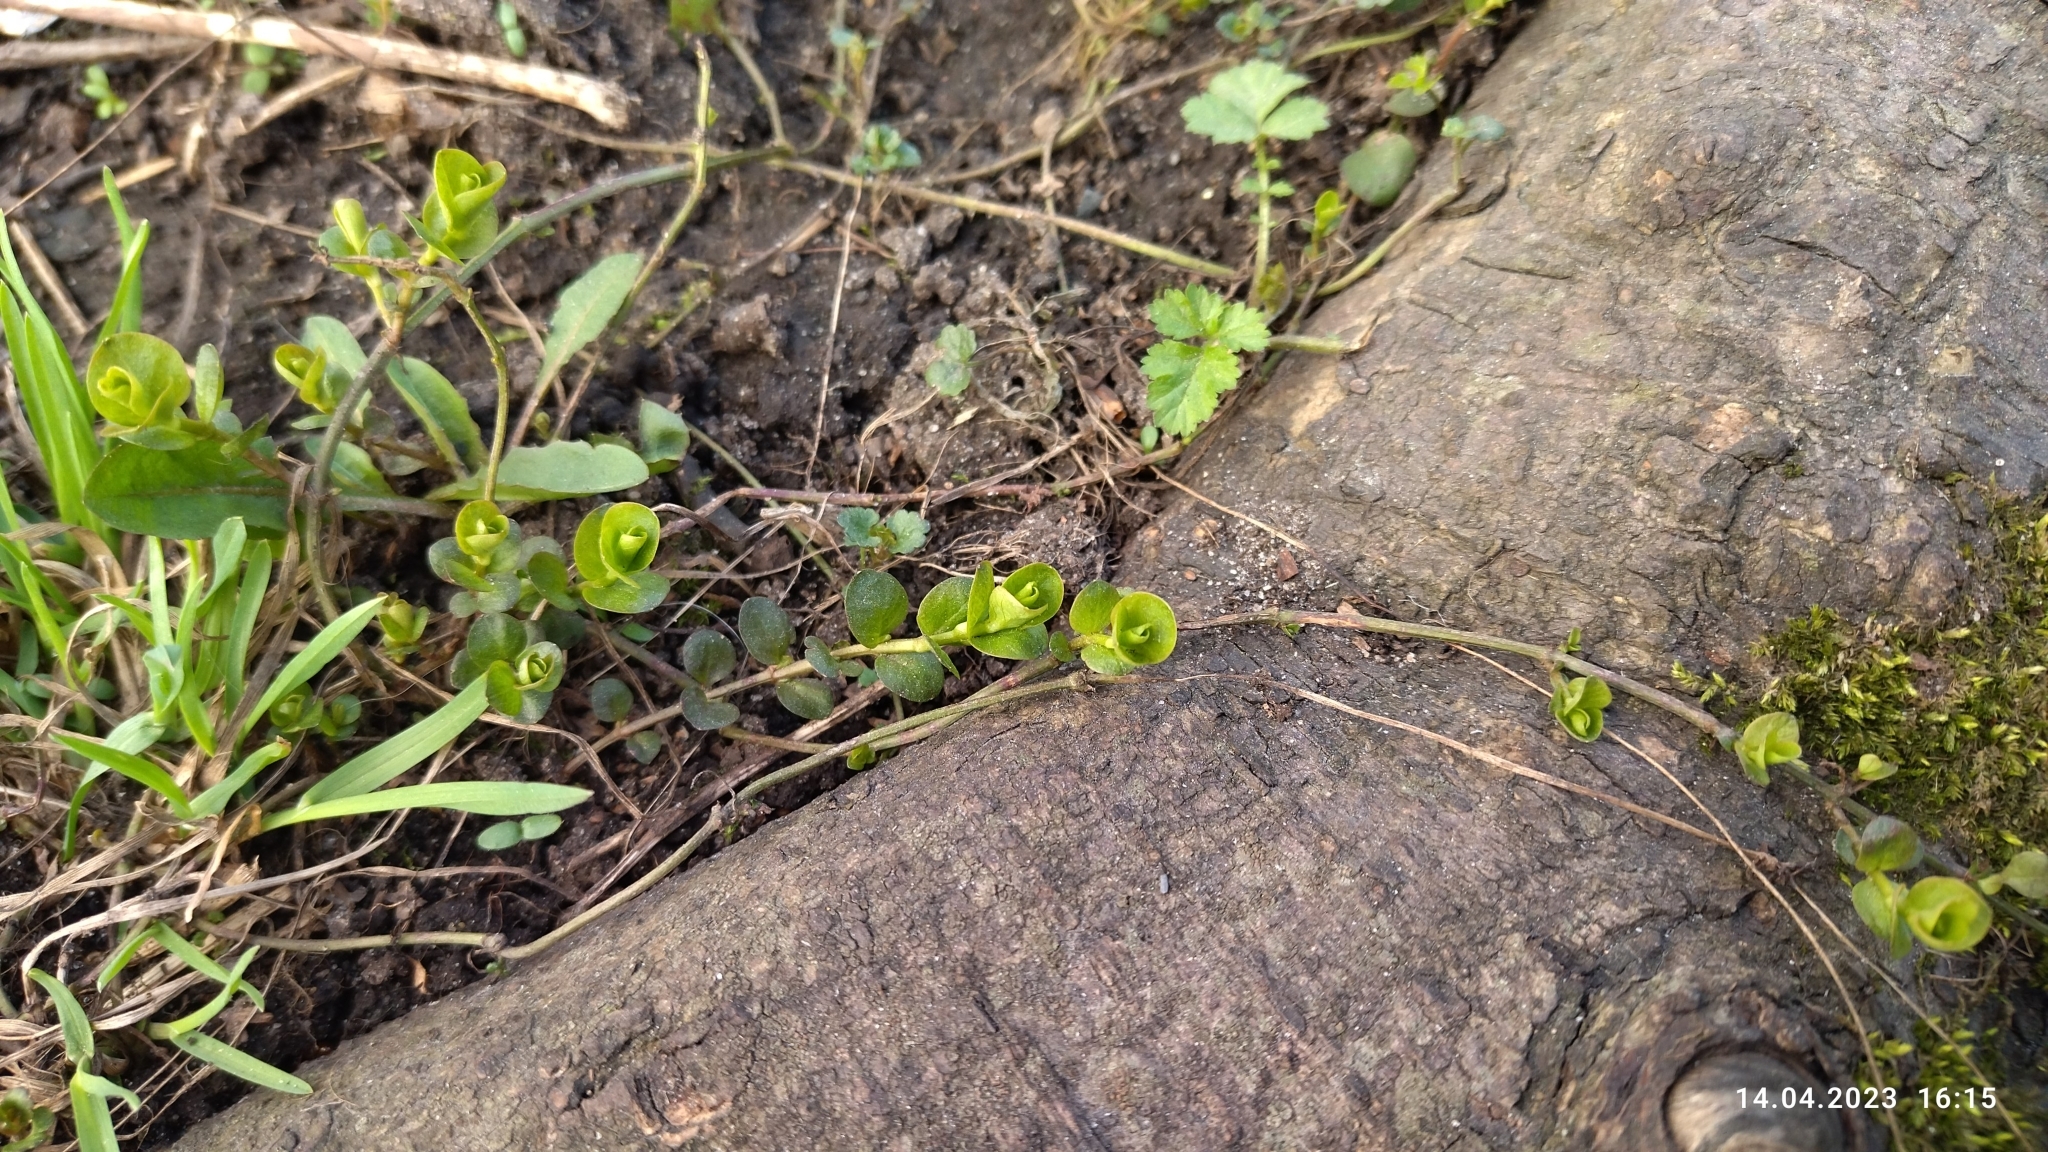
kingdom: Plantae
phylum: Tracheophyta
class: Magnoliopsida
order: Ericales
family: Primulaceae
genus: Lysimachia
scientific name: Lysimachia nummularia
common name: Moneywort
